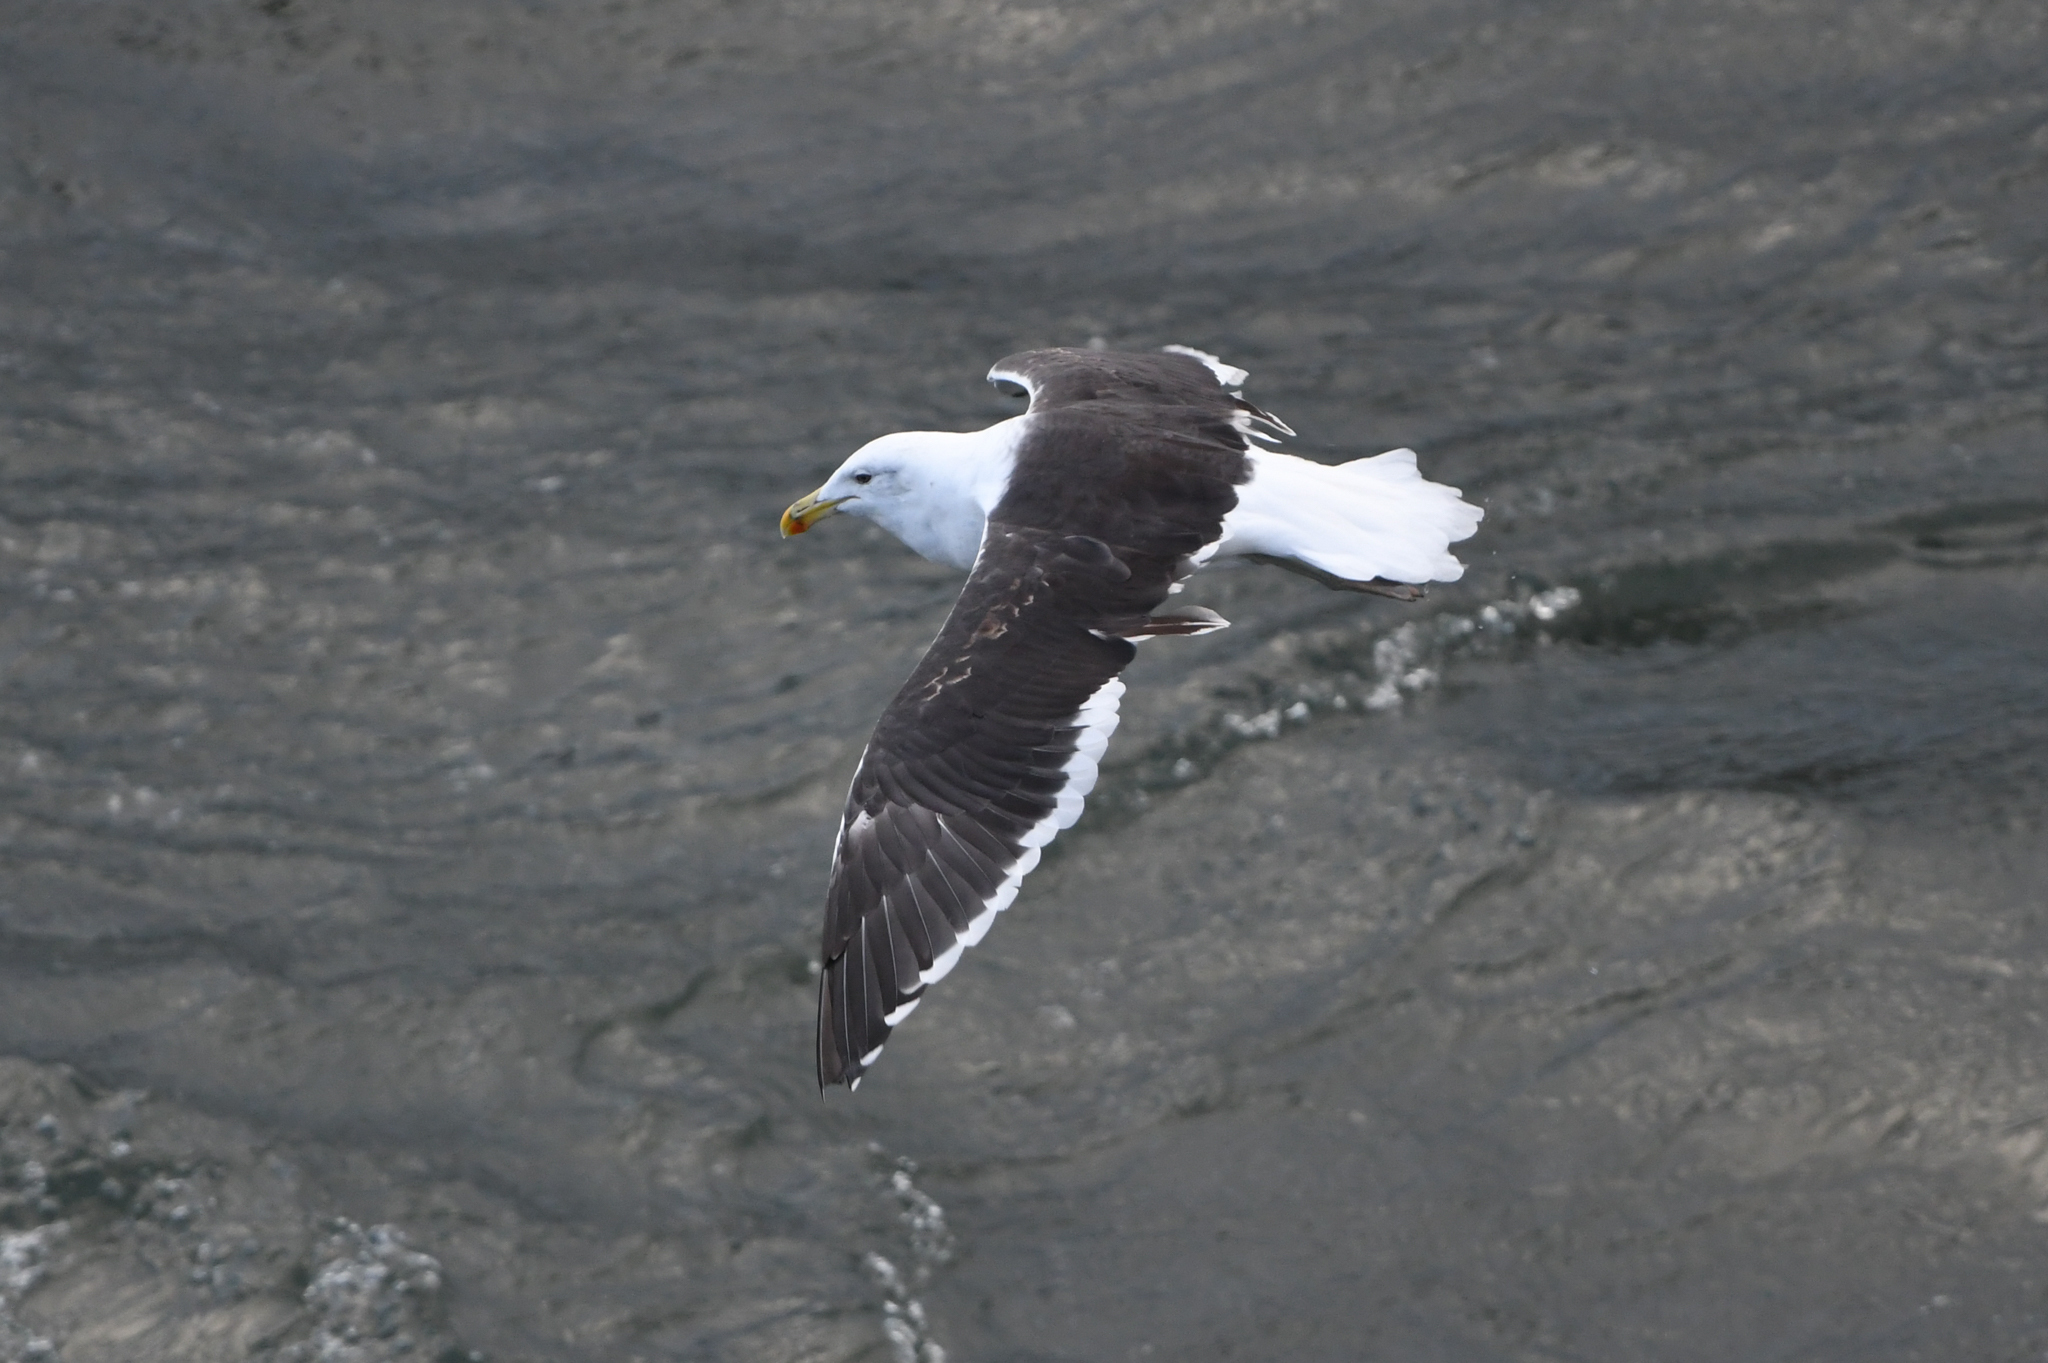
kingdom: Animalia
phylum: Chordata
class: Aves
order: Charadriiformes
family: Laridae
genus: Larus
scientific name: Larus dominicanus
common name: Kelp gull
